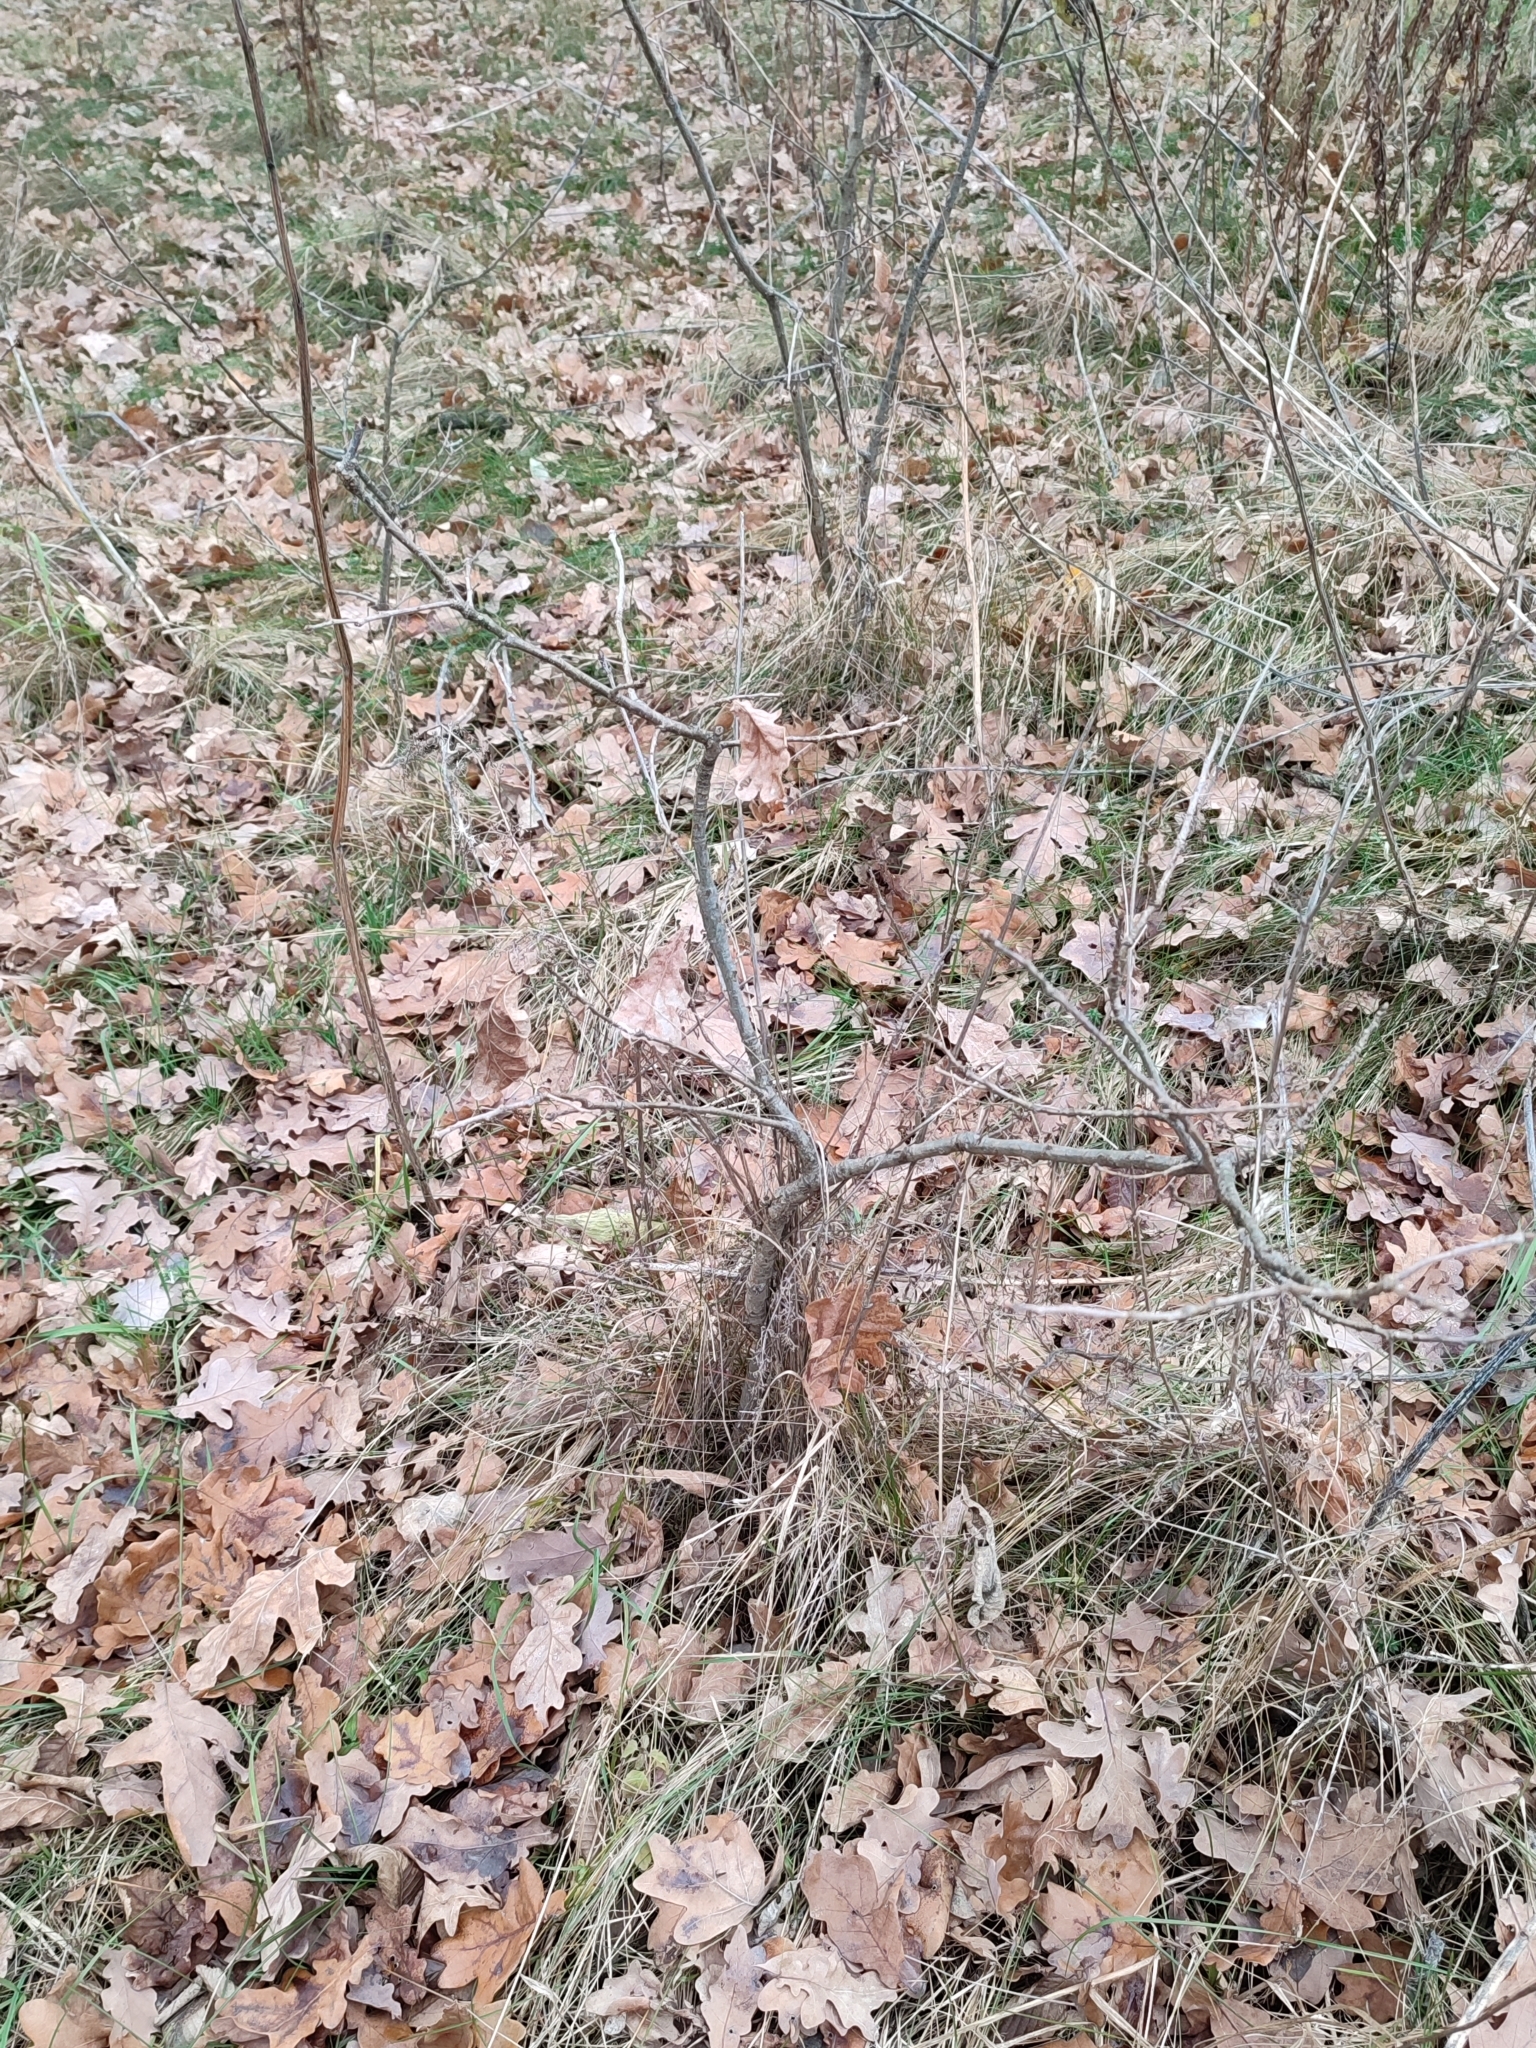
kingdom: Plantae
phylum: Tracheophyta
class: Magnoliopsida
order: Fagales
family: Fagaceae
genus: Quercus
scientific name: Quercus robur
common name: Pedunculate oak
